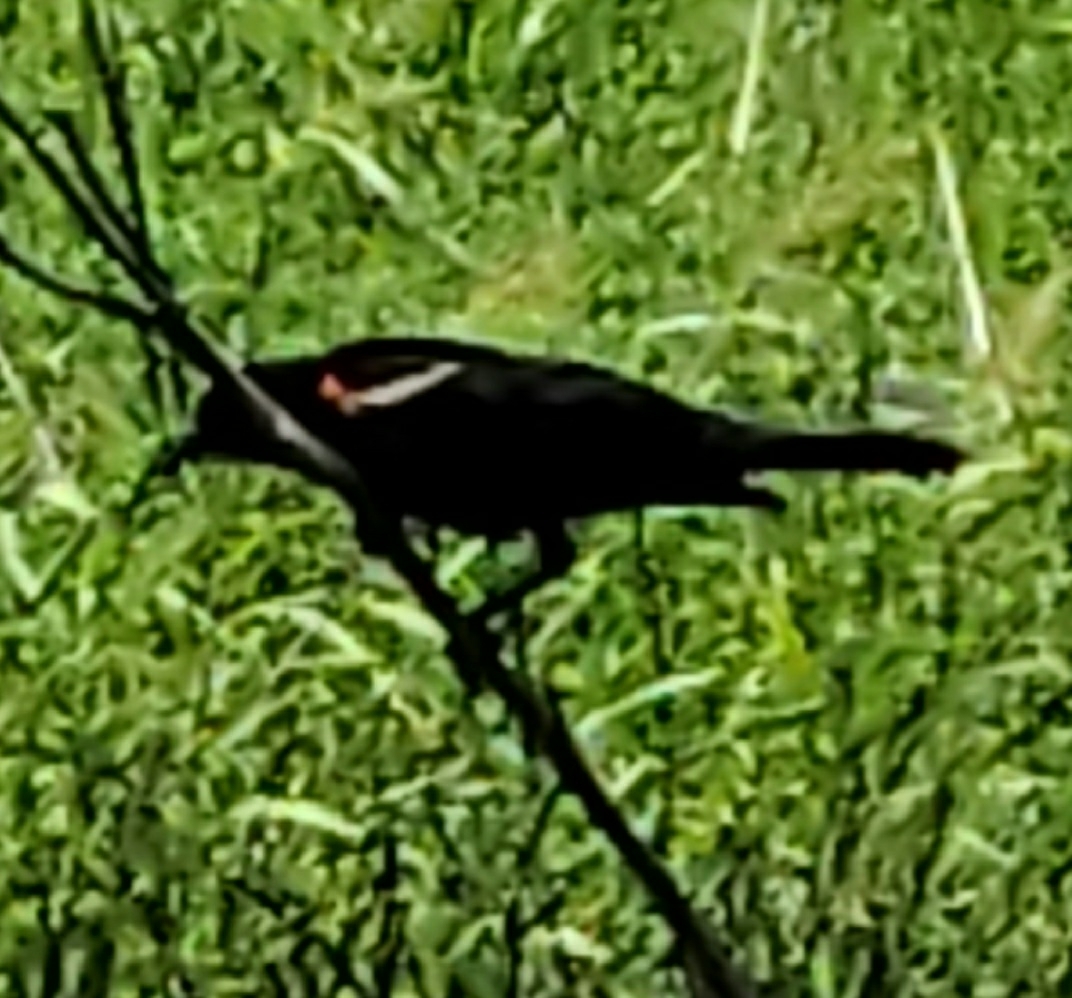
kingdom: Animalia
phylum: Chordata
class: Aves
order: Passeriformes
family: Icteridae
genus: Agelaius
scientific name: Agelaius phoeniceus
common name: Red-winged blackbird
